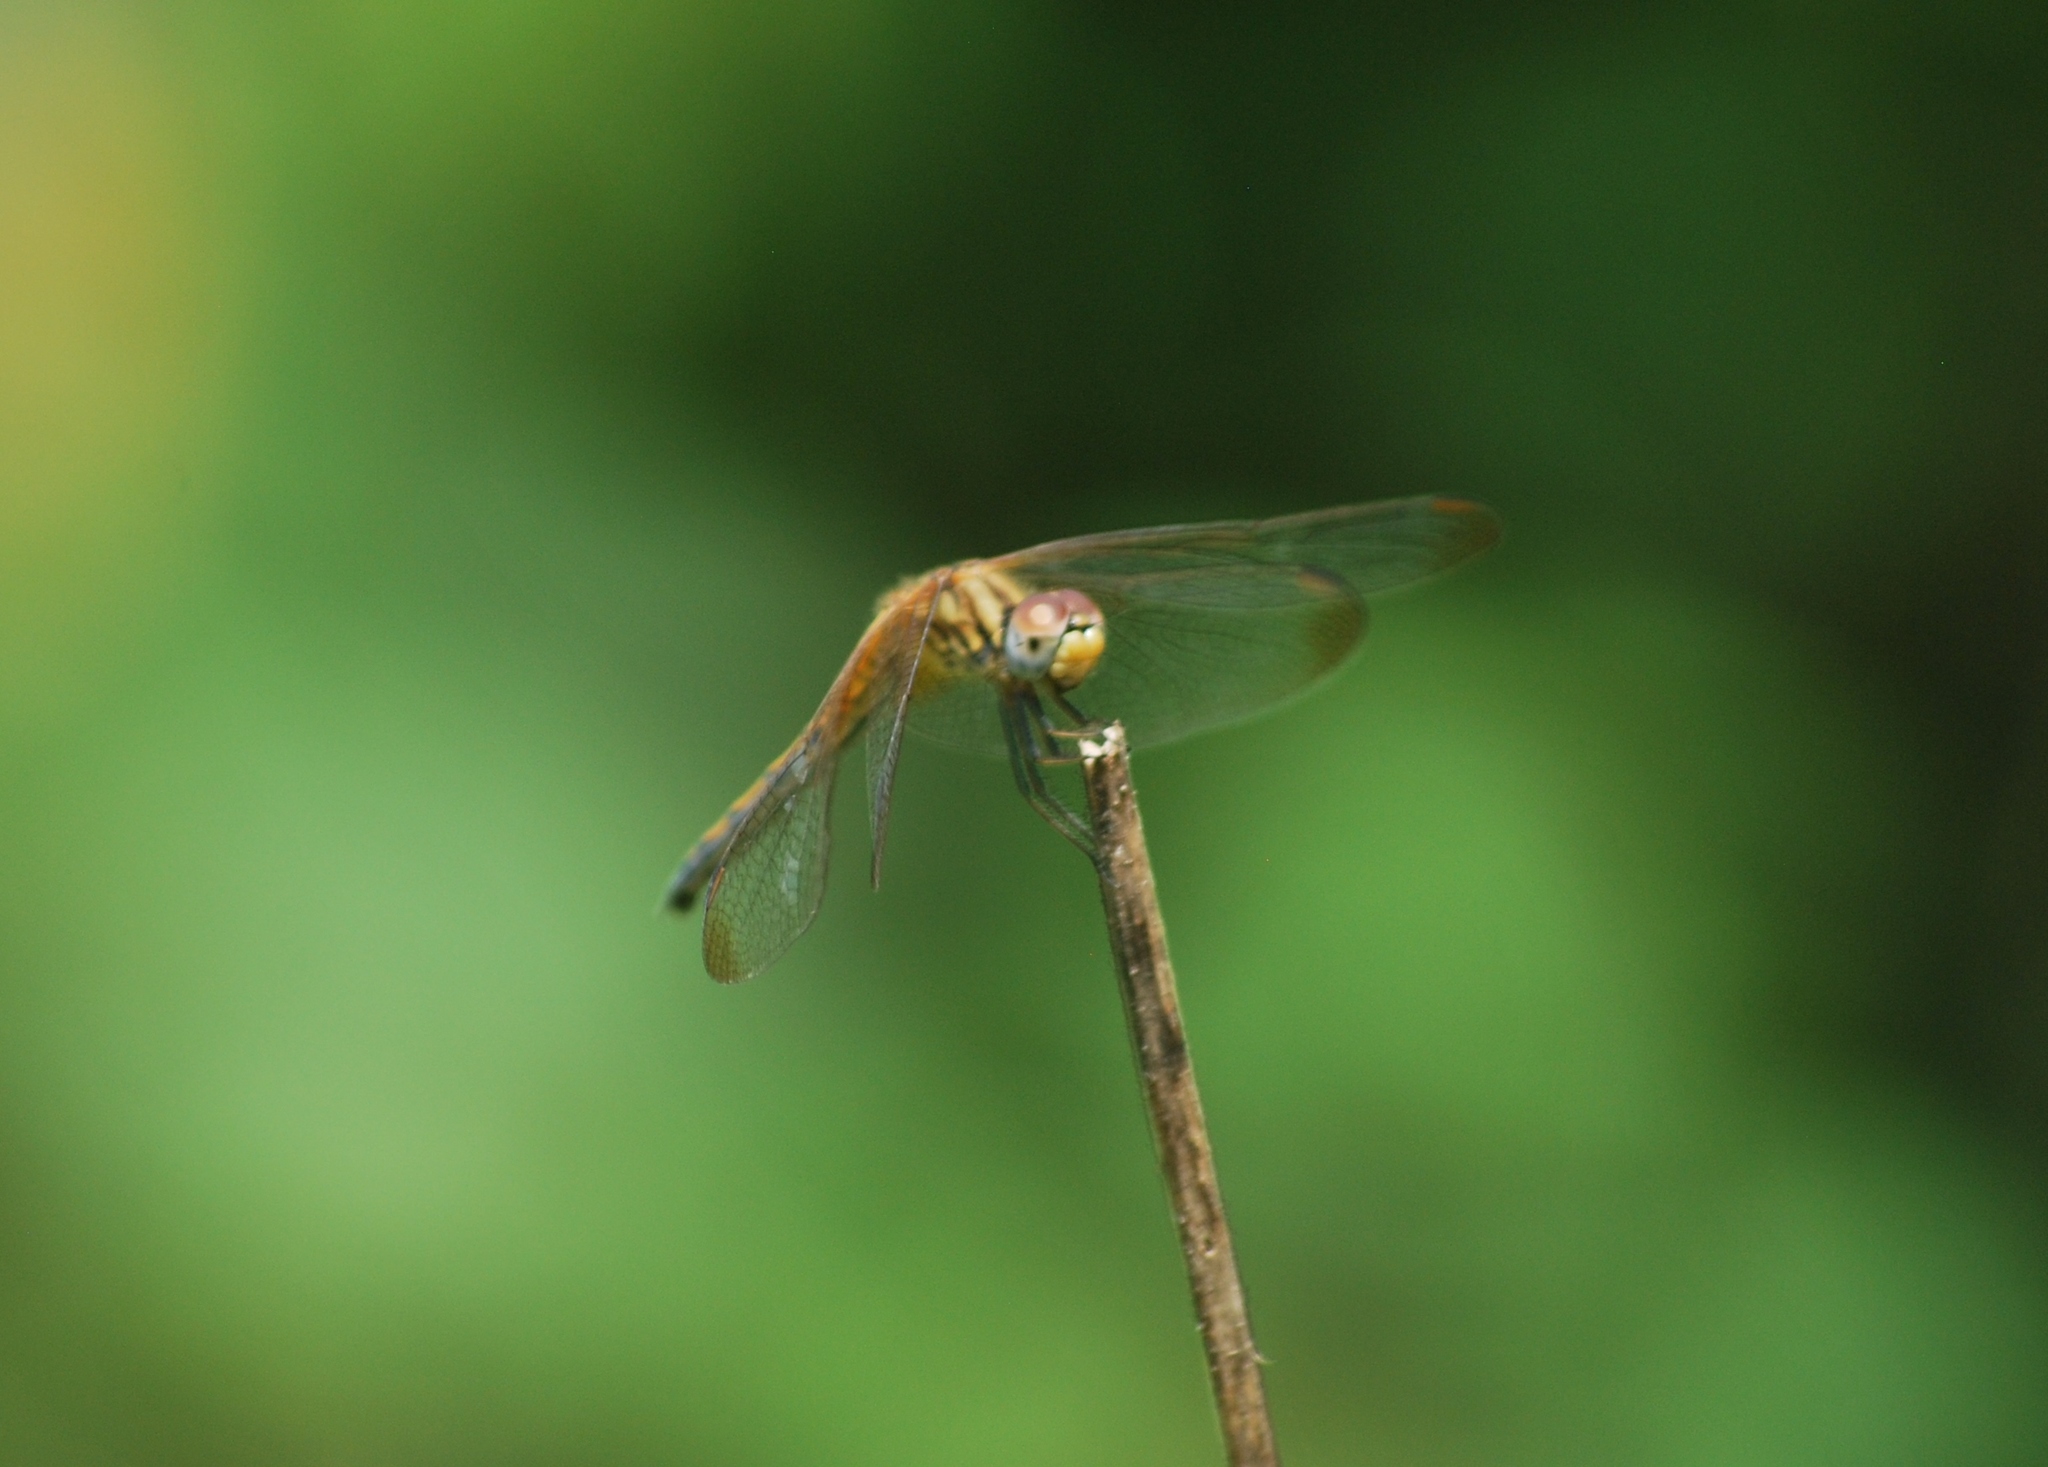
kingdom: Animalia
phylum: Arthropoda
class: Insecta
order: Odonata
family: Libellulidae
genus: Trithemis
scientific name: Trithemis aurora
